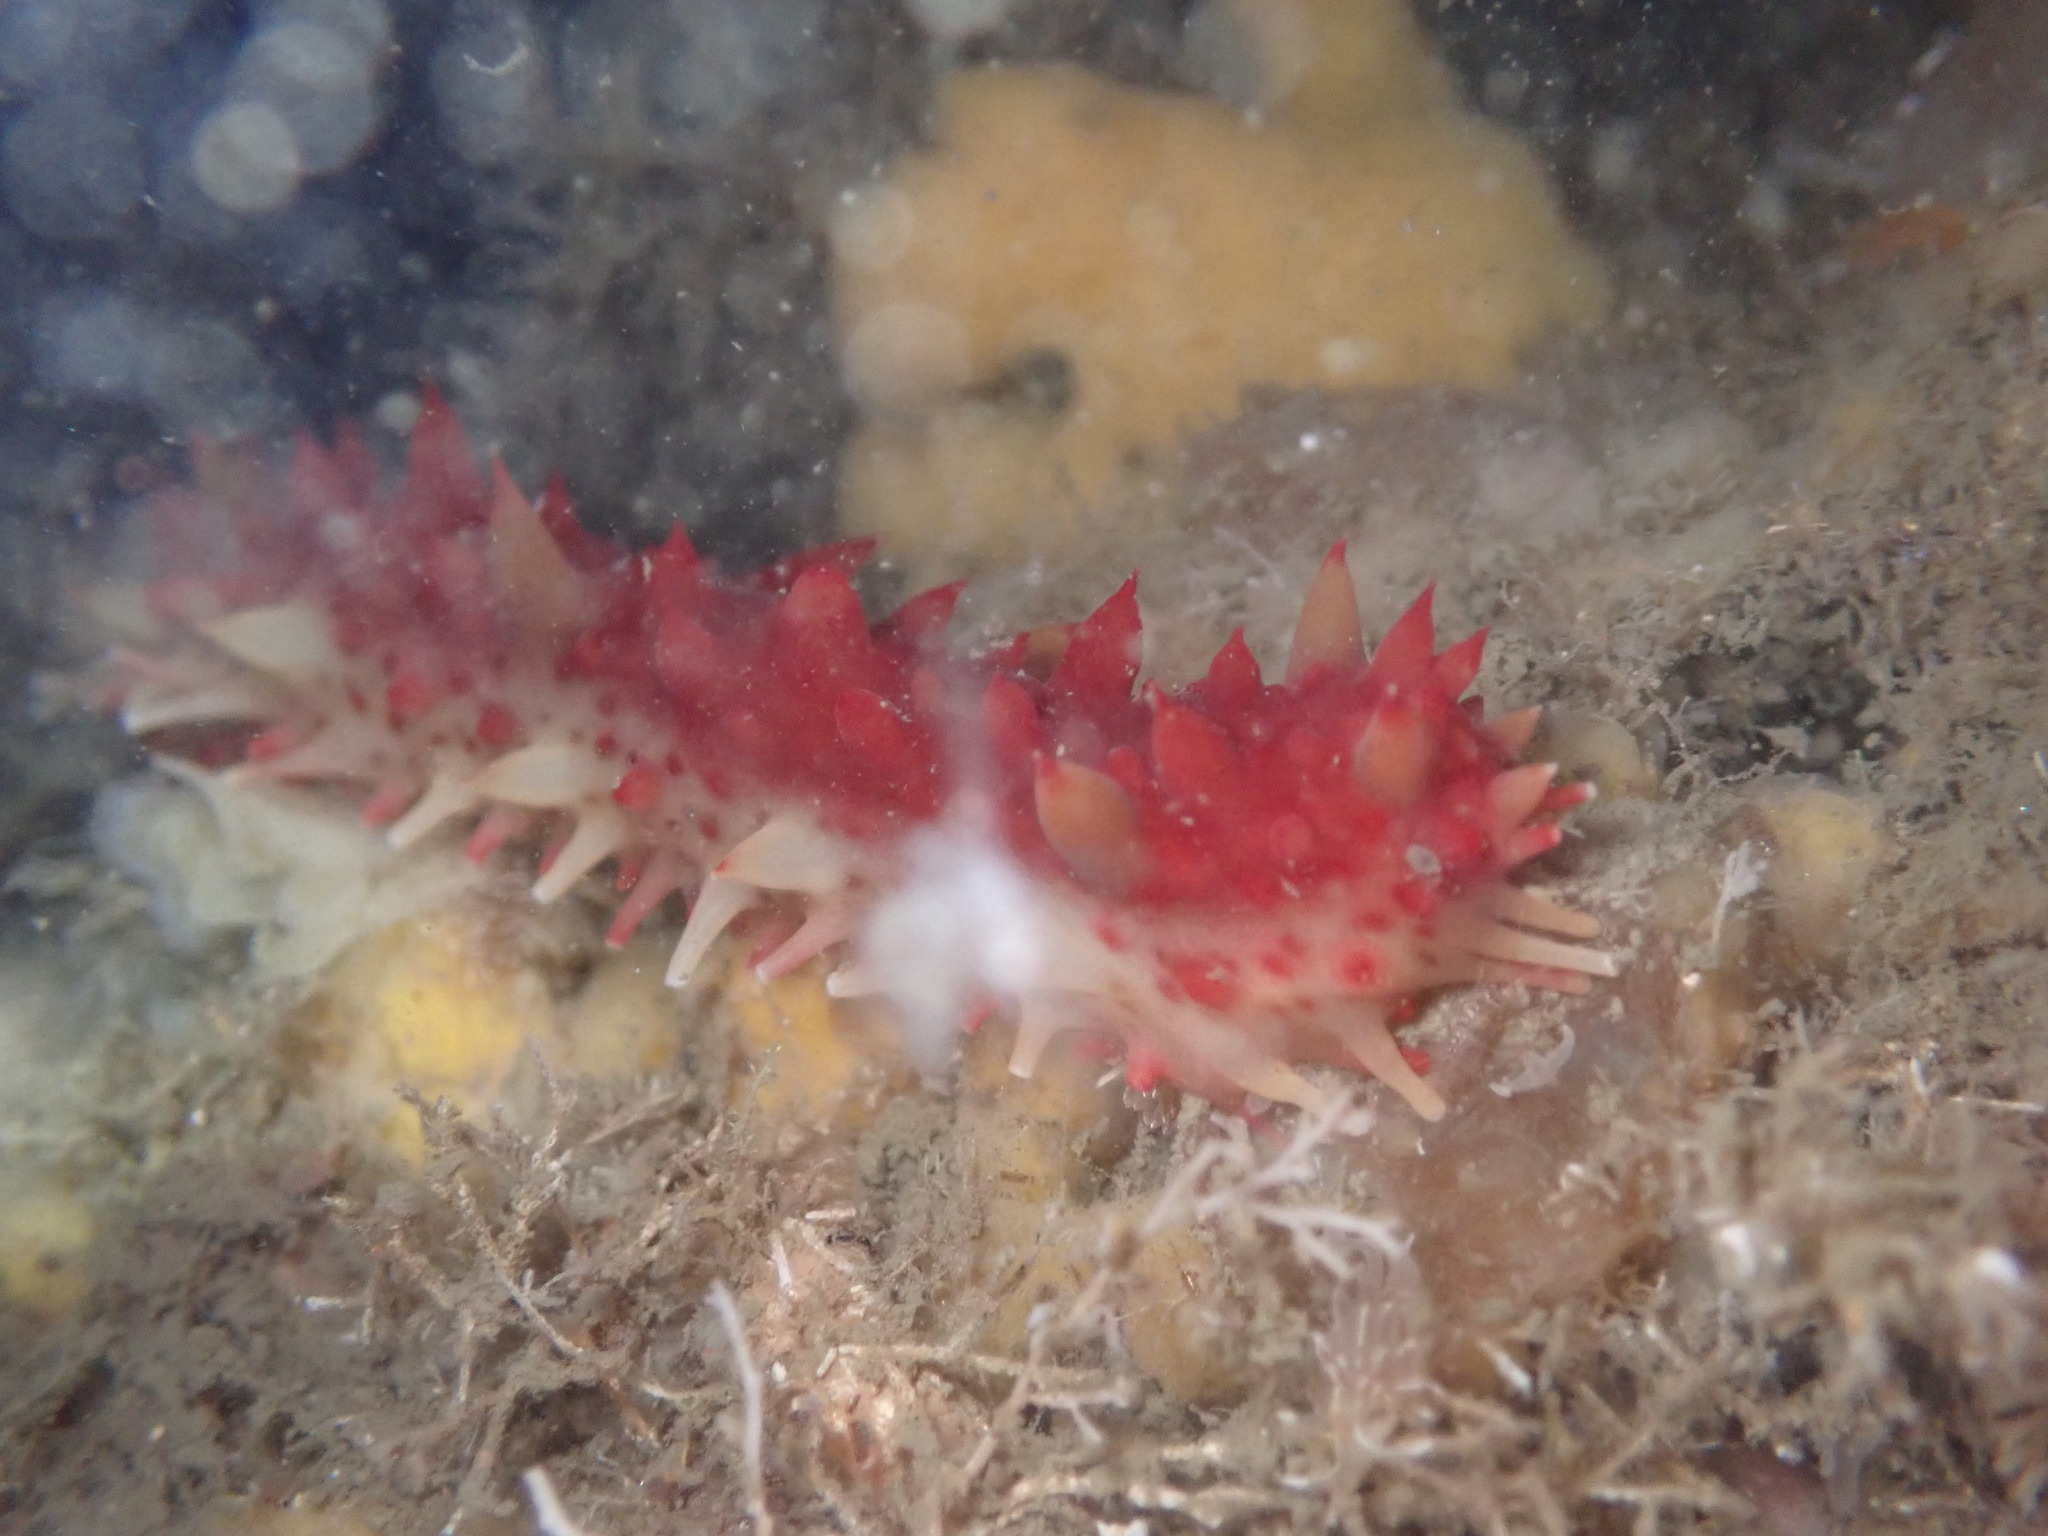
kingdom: Animalia
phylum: Echinodermata
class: Holothuroidea
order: Synallactida
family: Stichopodidae
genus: Apostichopus
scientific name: Apostichopus californicus
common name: California sea cucumber
